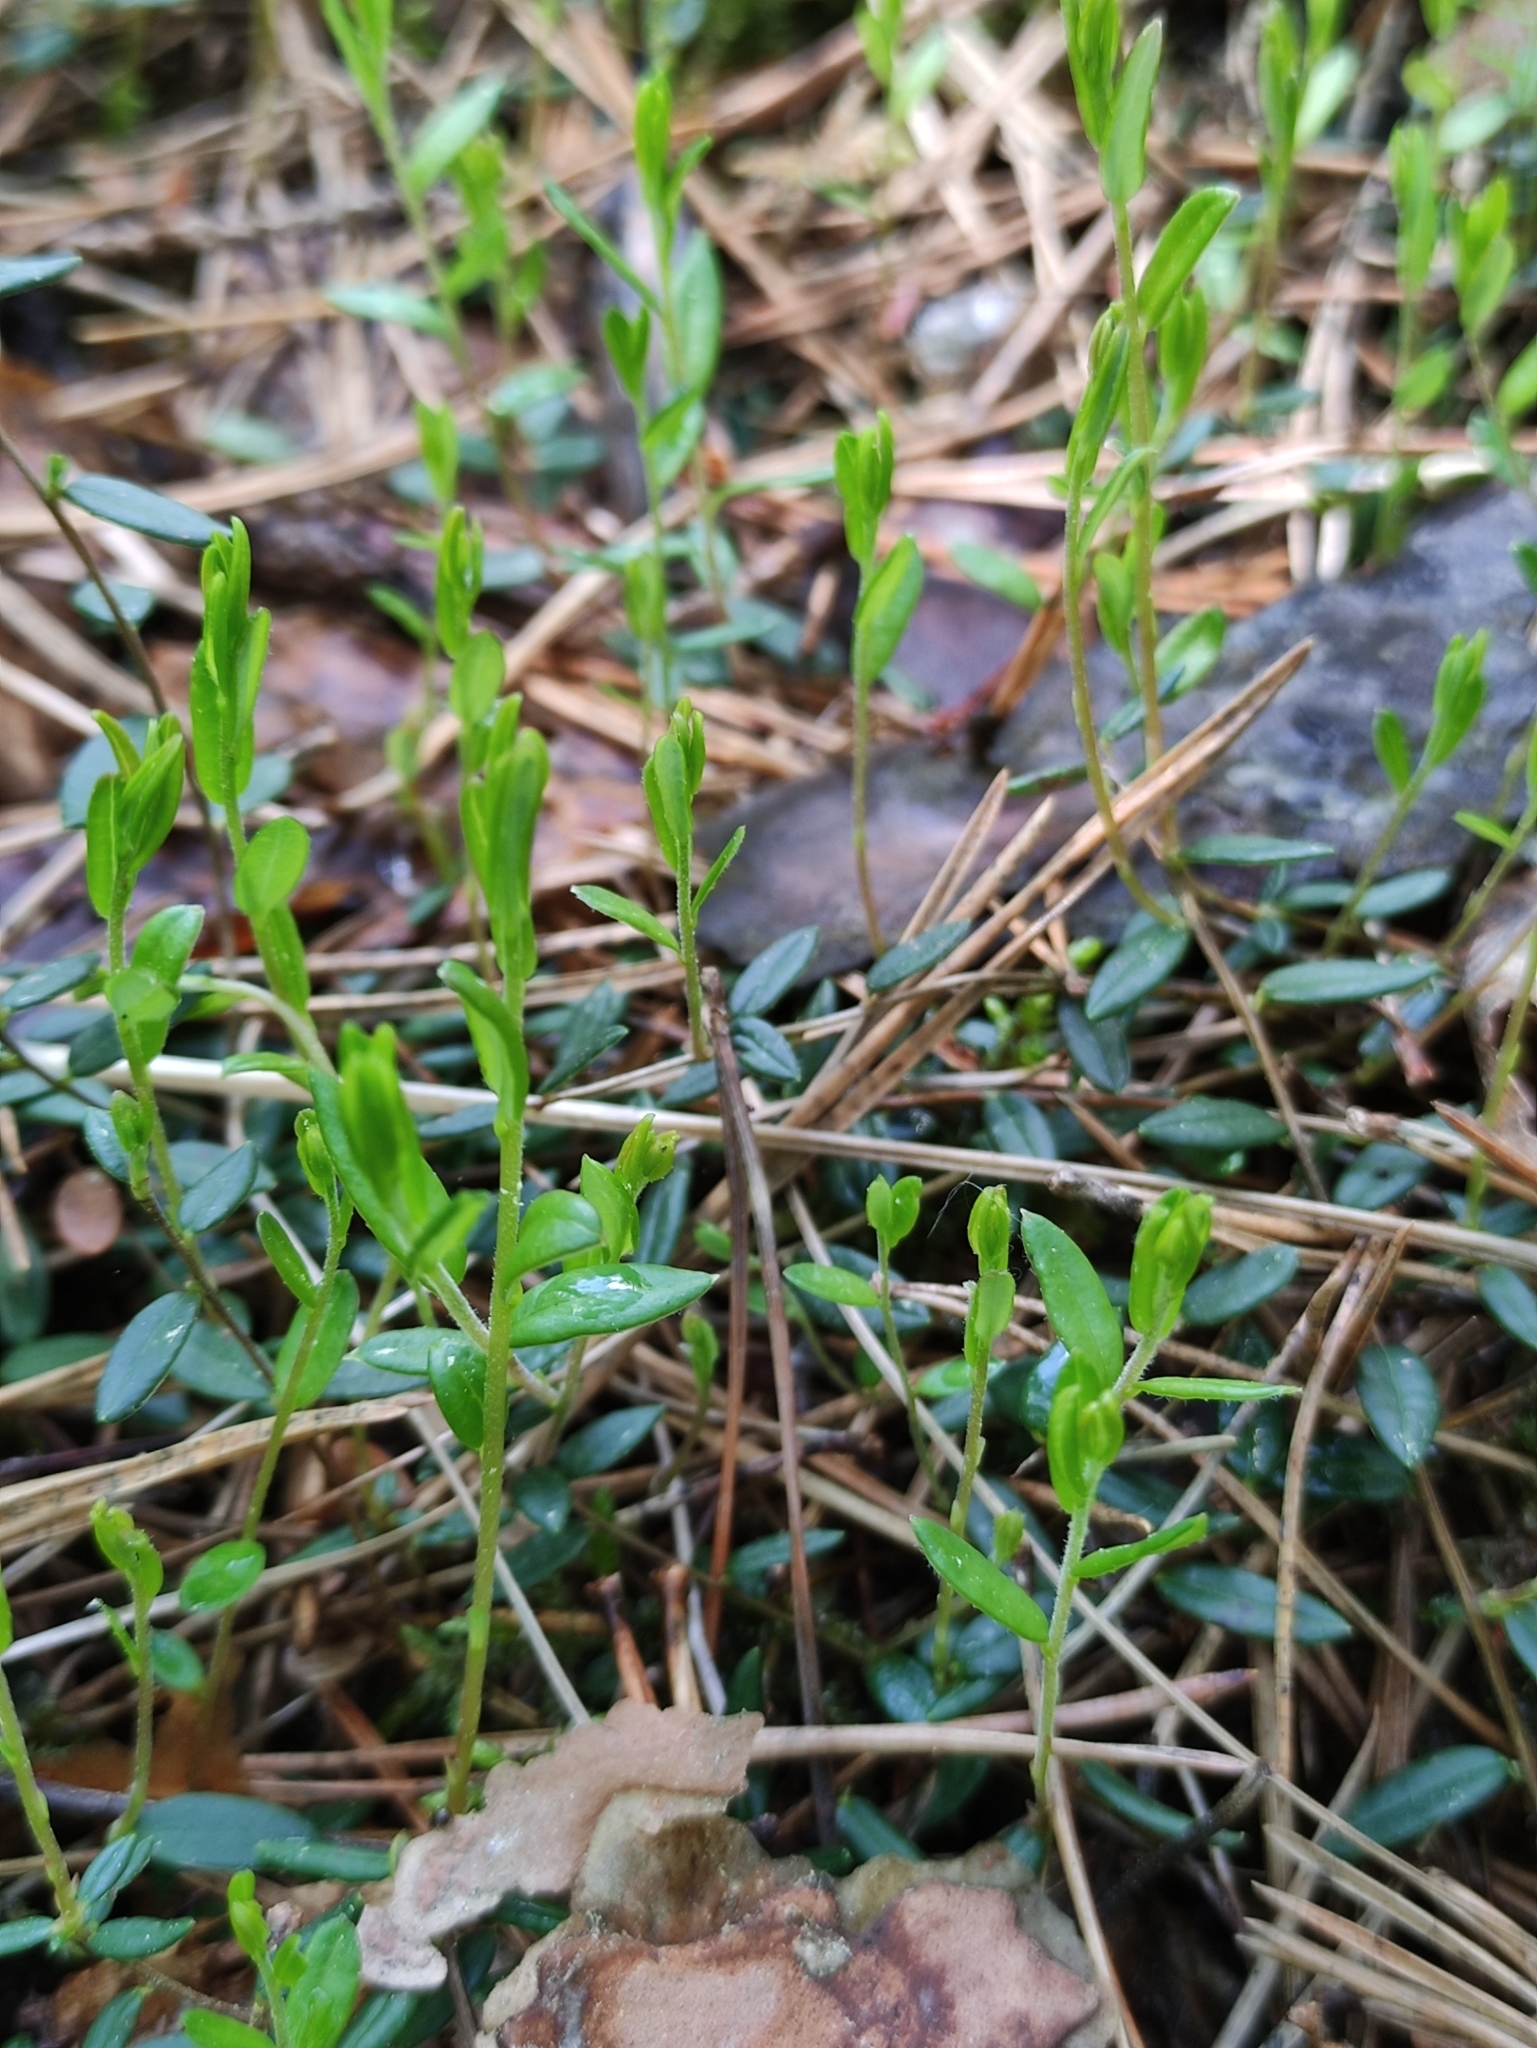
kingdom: Plantae
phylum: Tracheophyta
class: Magnoliopsida
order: Ericales
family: Ericaceae
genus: Vaccinium
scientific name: Vaccinium oxycoccos
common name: Cranberry
